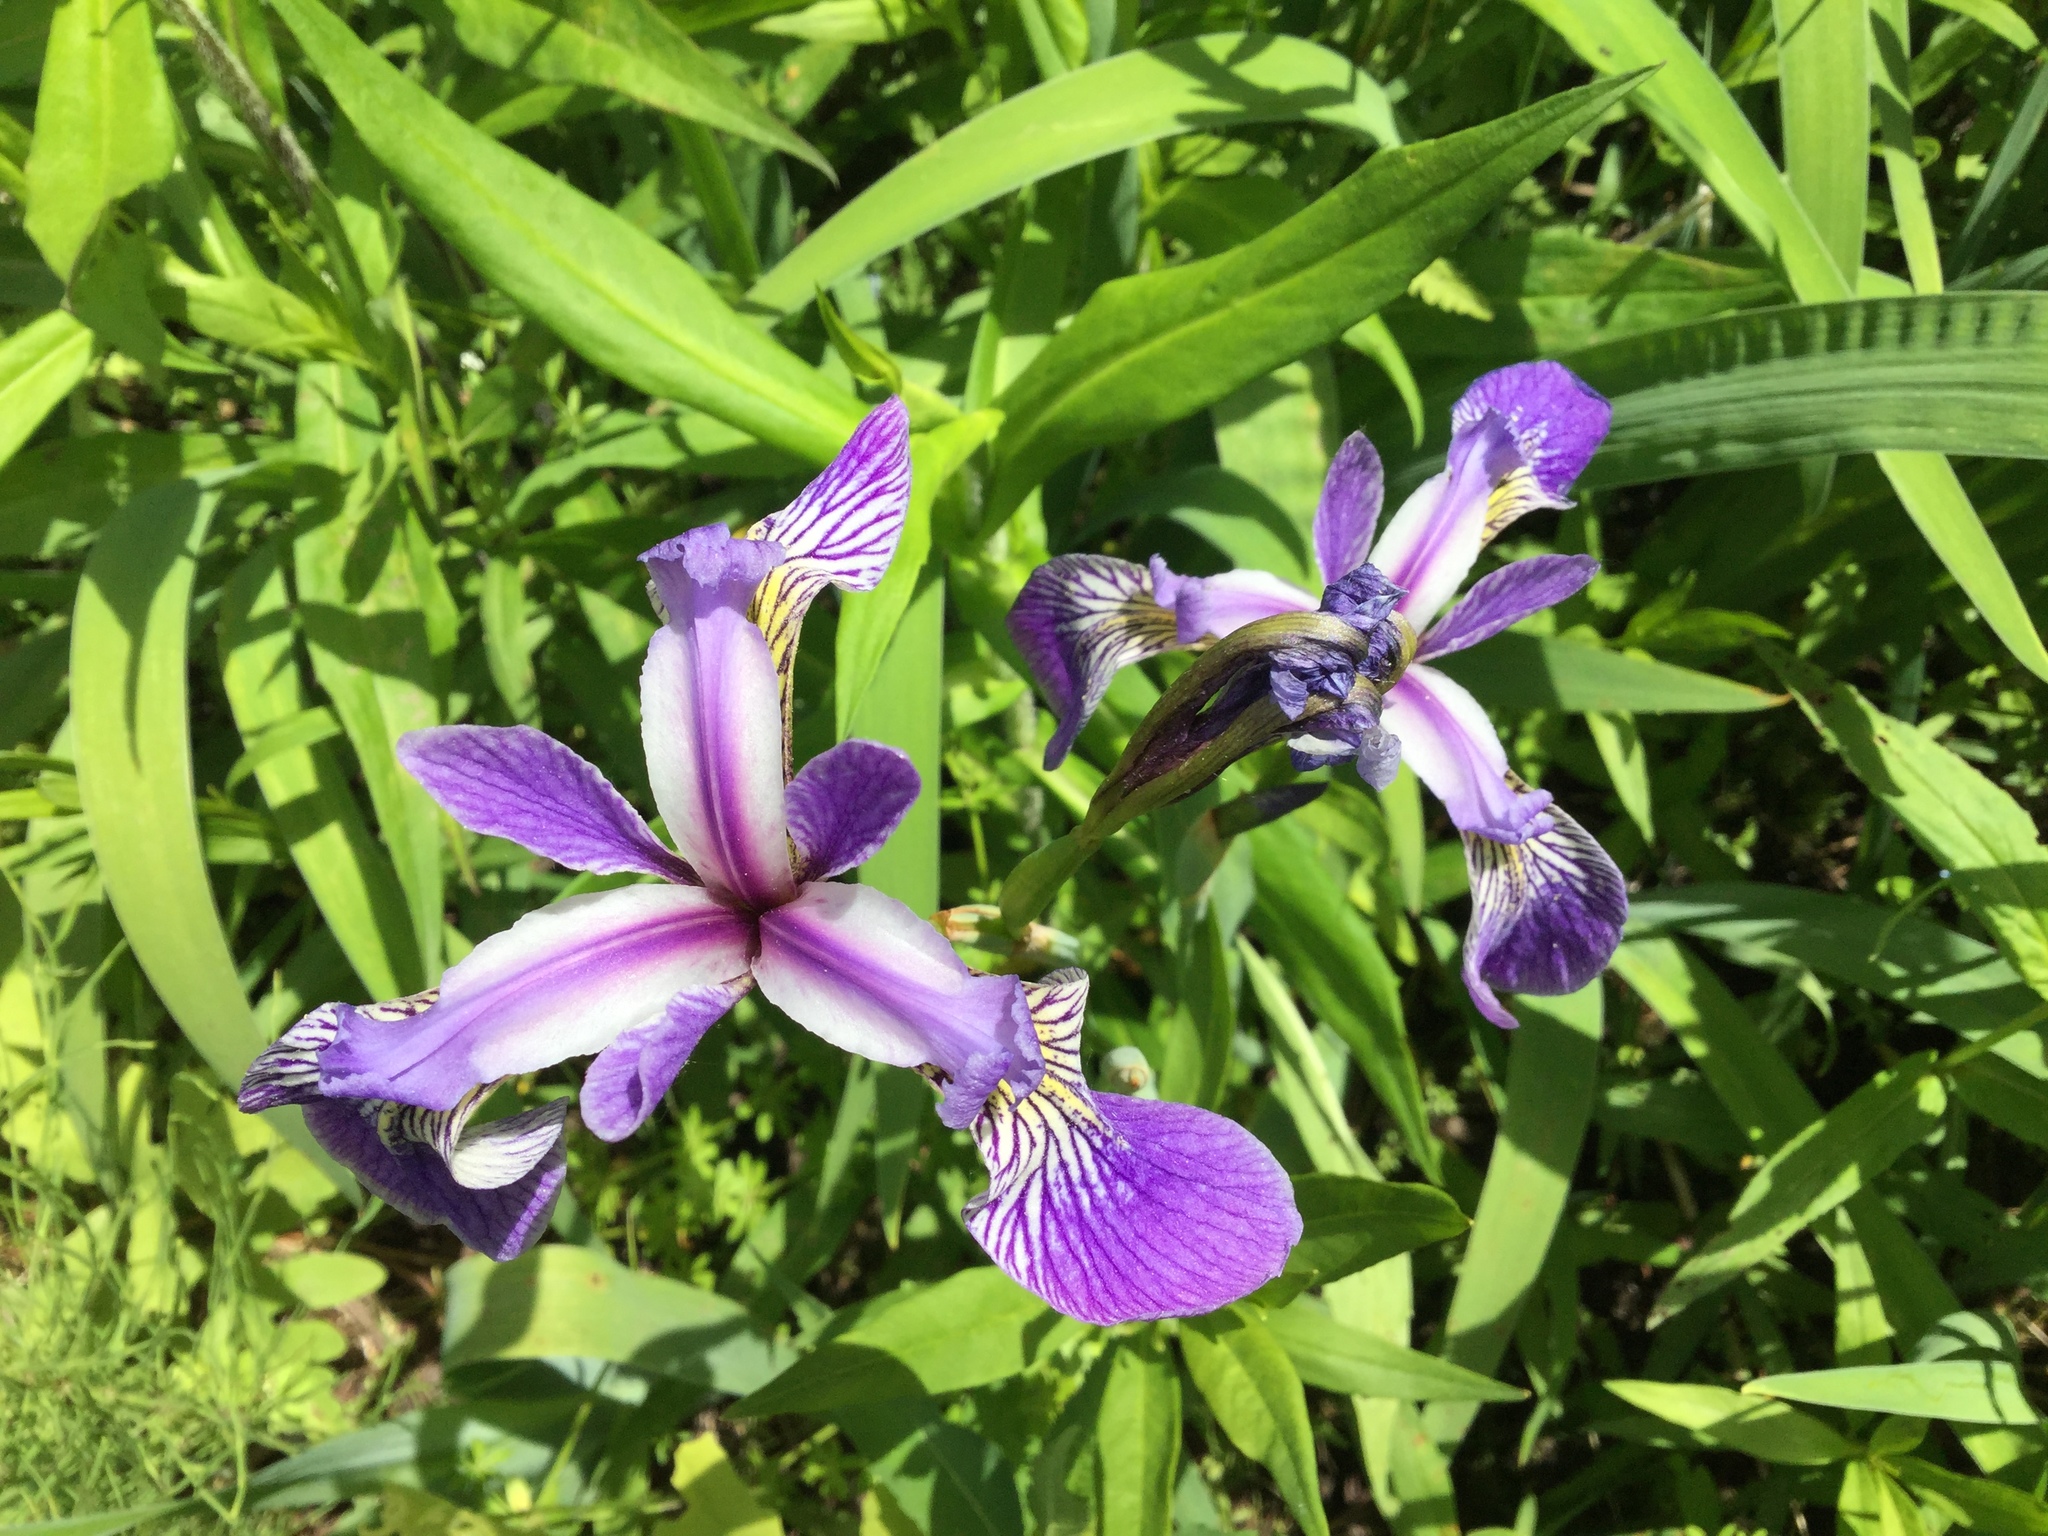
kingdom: Plantae
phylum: Tracheophyta
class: Liliopsida
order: Asparagales
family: Iridaceae
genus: Iris
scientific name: Iris versicolor
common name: Purple iris
